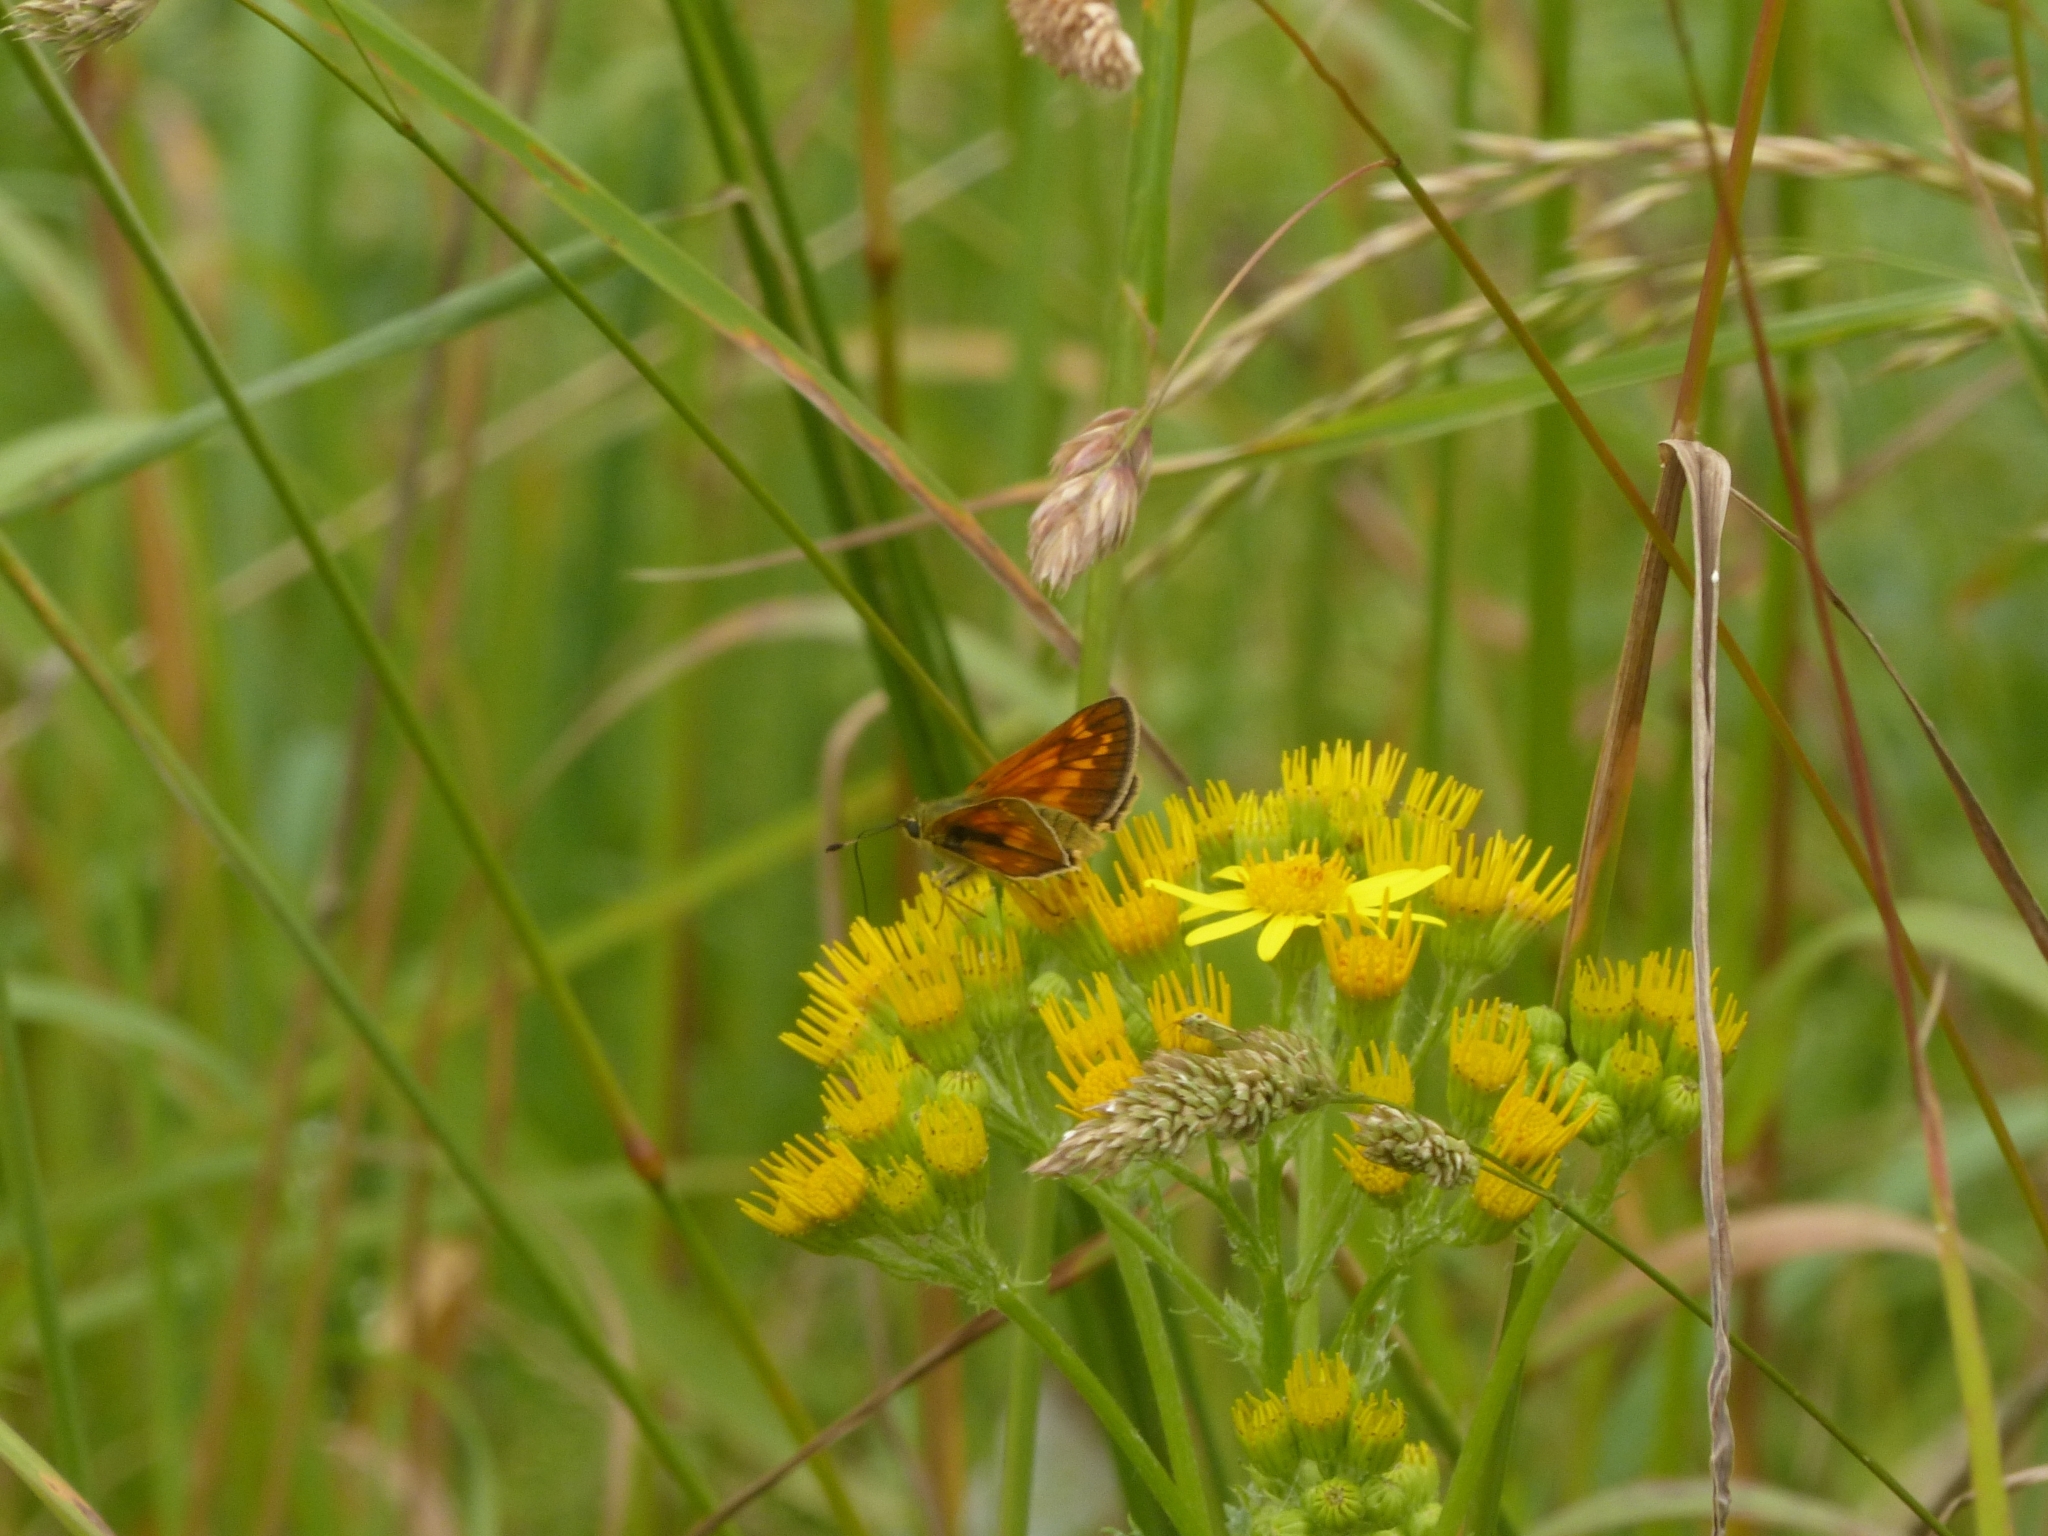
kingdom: Animalia
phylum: Arthropoda
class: Insecta
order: Lepidoptera
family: Hesperiidae
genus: Ochlodes
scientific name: Ochlodes venata
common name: Large skipper
